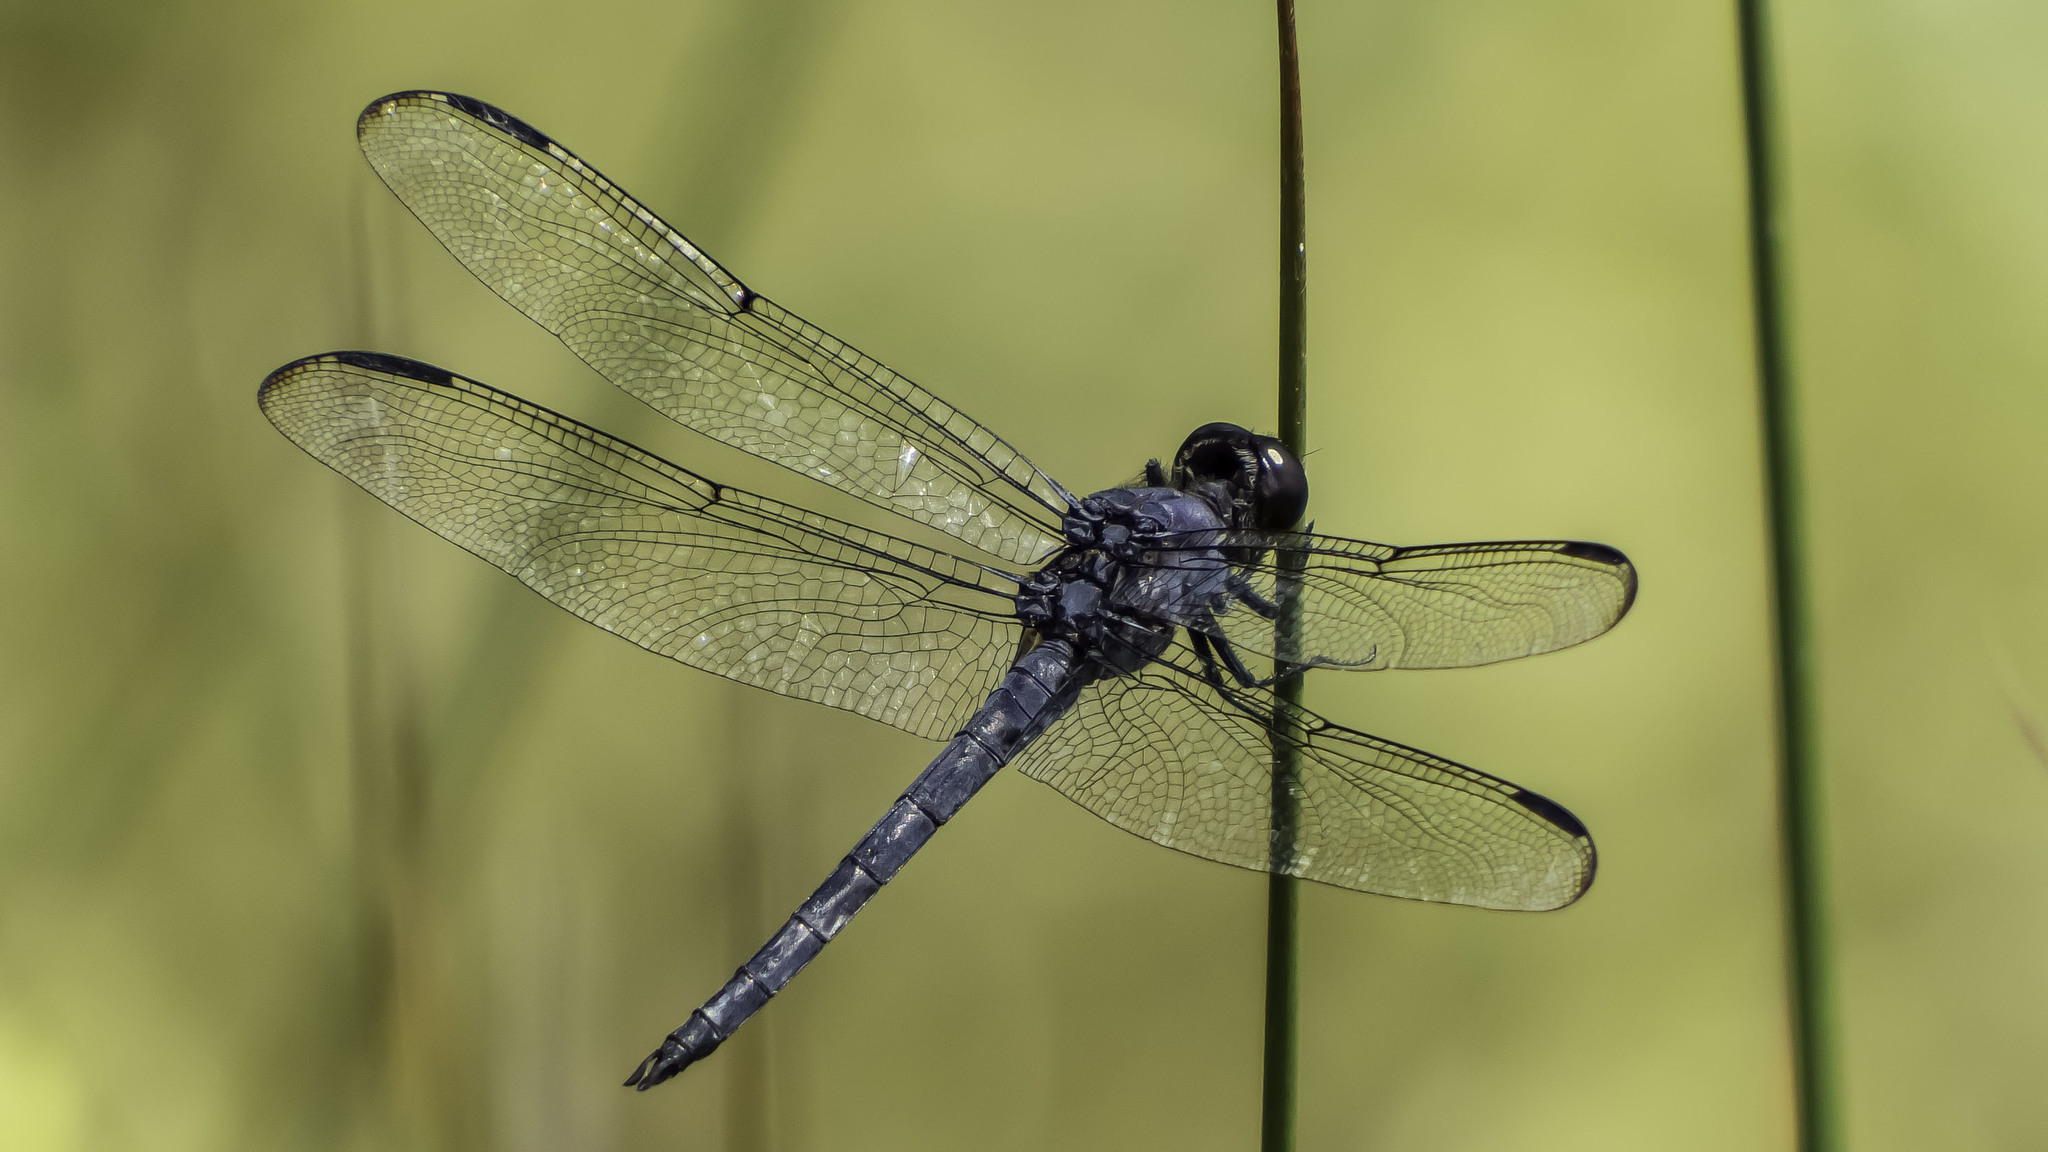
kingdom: Animalia
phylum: Arthropoda
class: Insecta
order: Odonata
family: Libellulidae
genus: Libellula
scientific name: Libellula incesta
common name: Slaty skimmer
